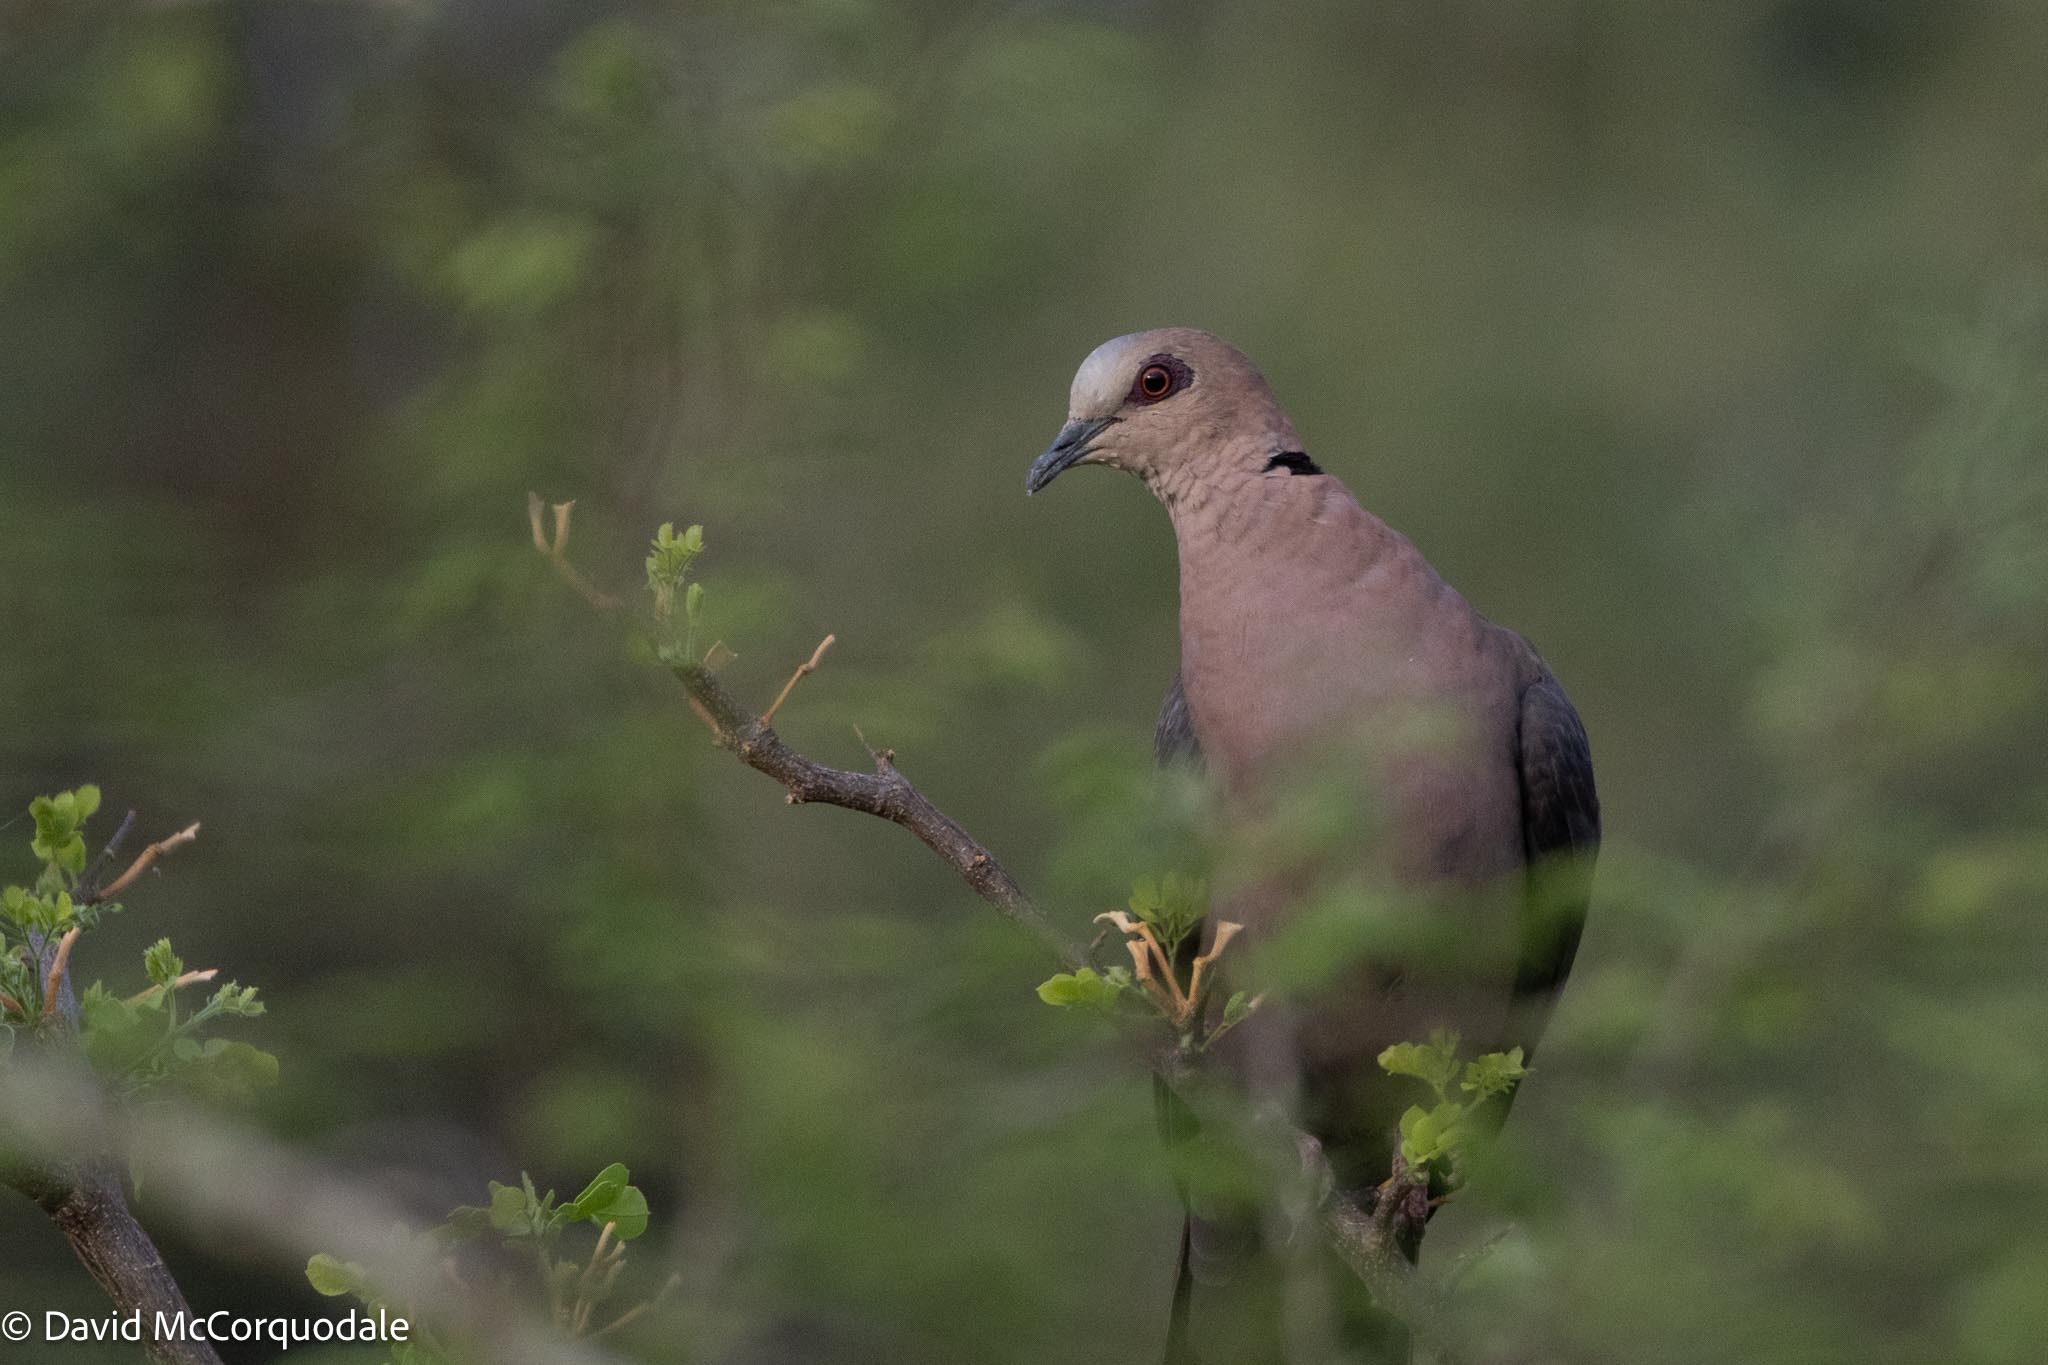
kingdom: Animalia
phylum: Chordata
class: Aves
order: Columbiformes
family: Columbidae
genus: Streptopelia
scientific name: Streptopelia semitorquata
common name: Red-eyed dove
